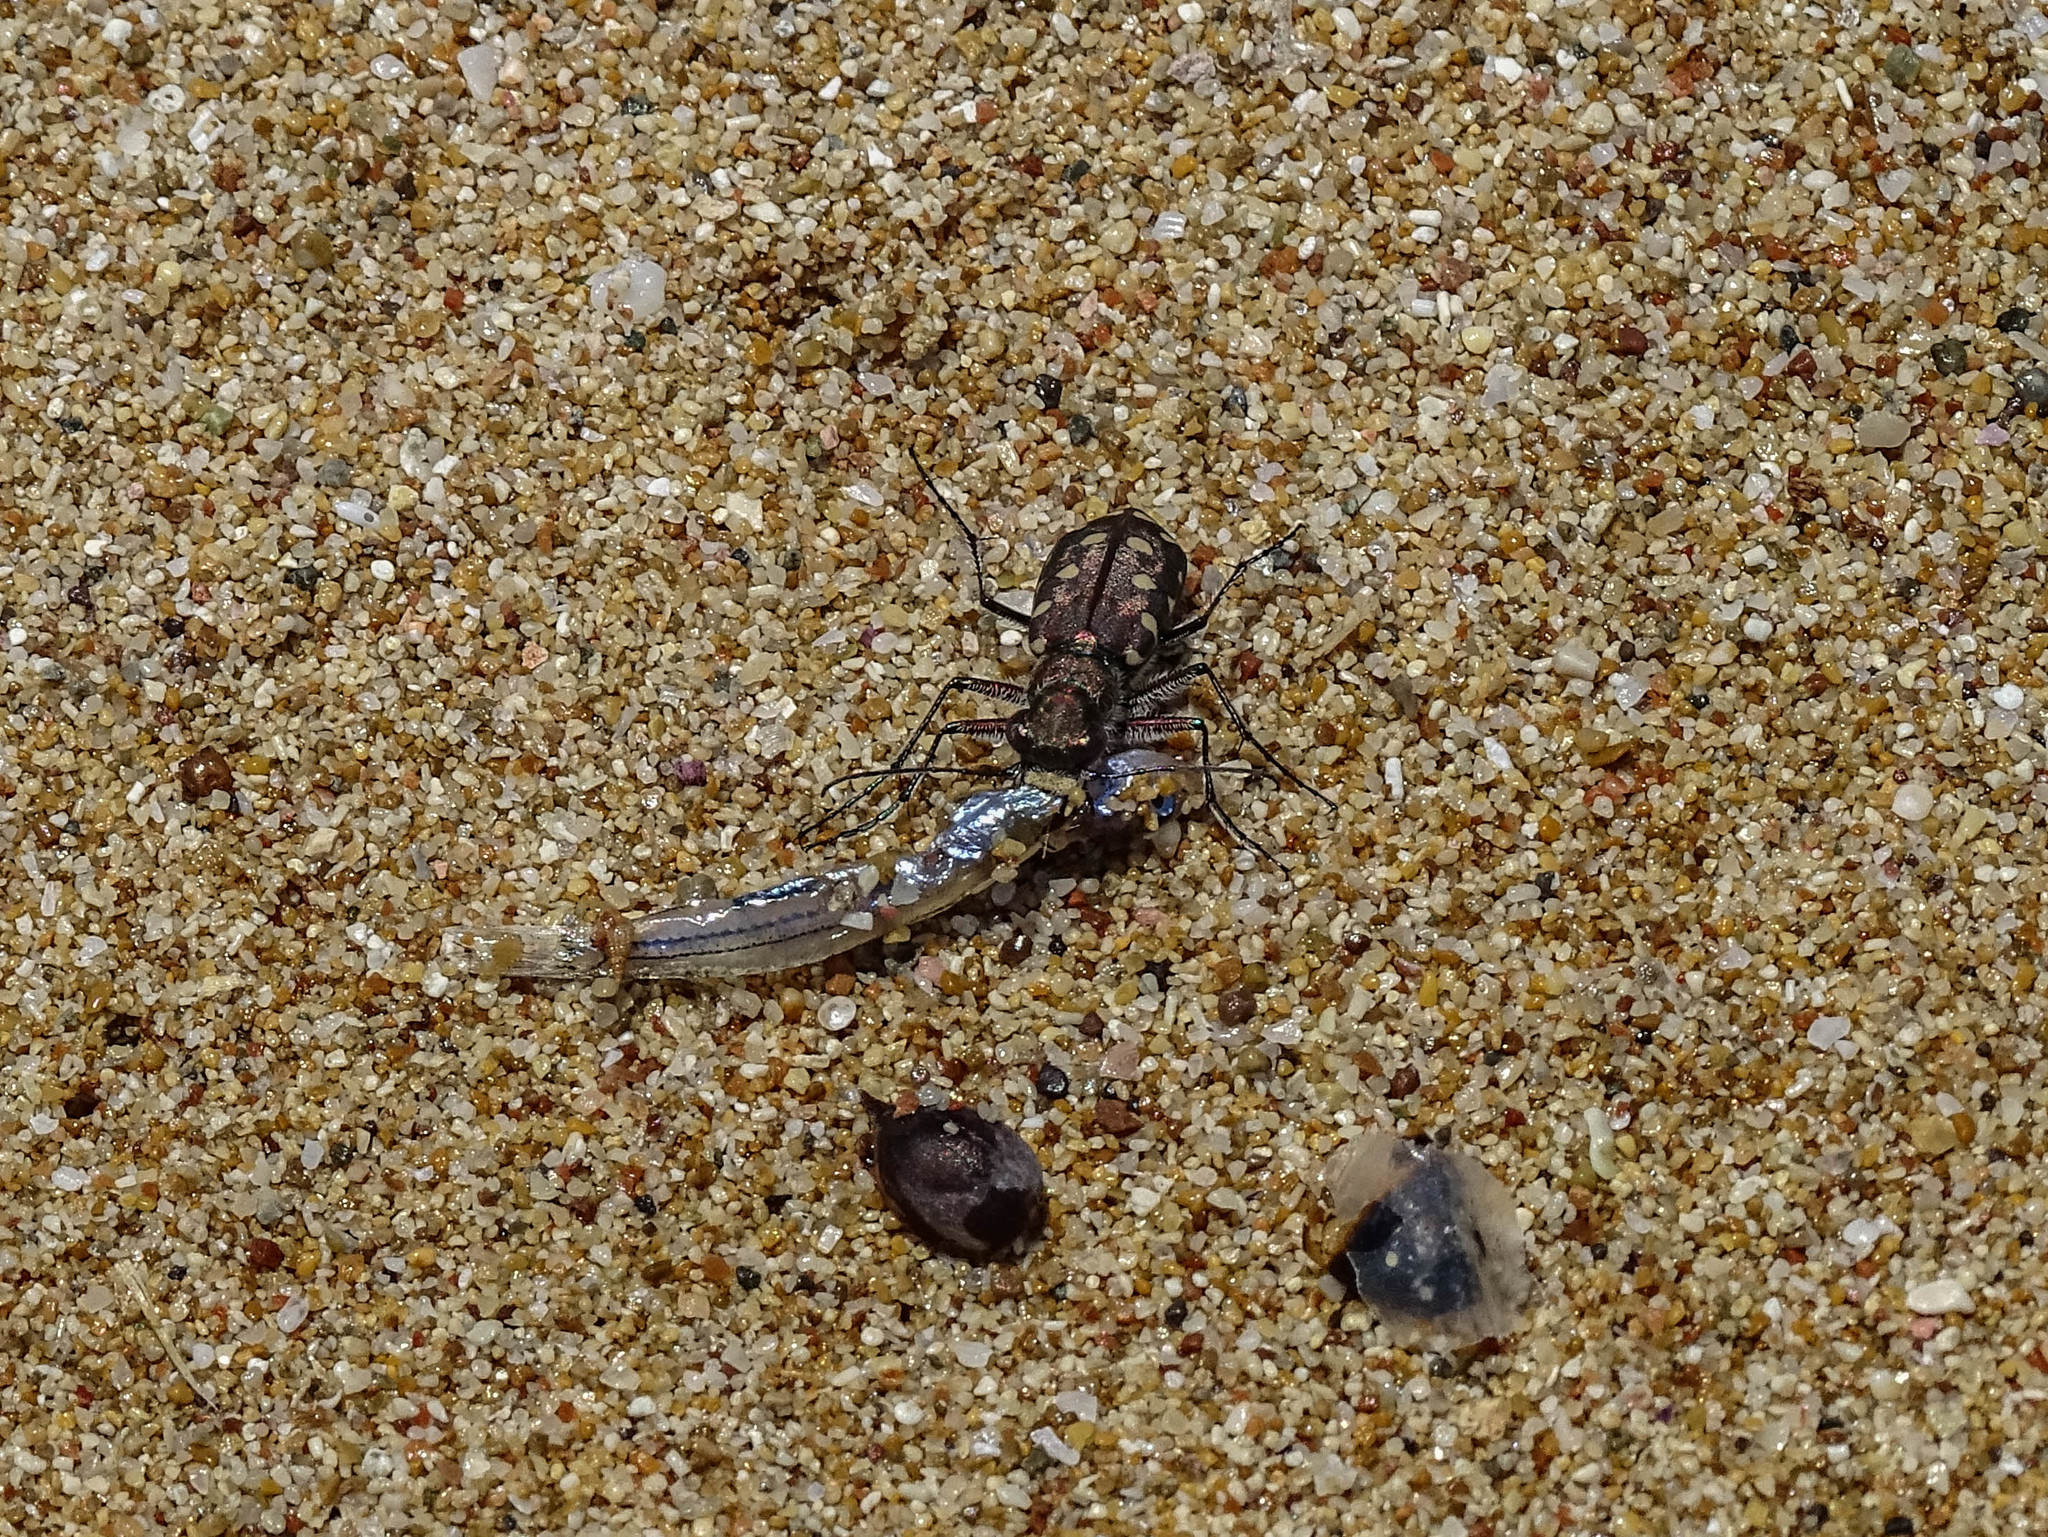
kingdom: Animalia
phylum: Arthropoda
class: Insecta
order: Coleoptera
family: Carabidae
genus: Cicindela
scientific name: Cicindela littoralis
